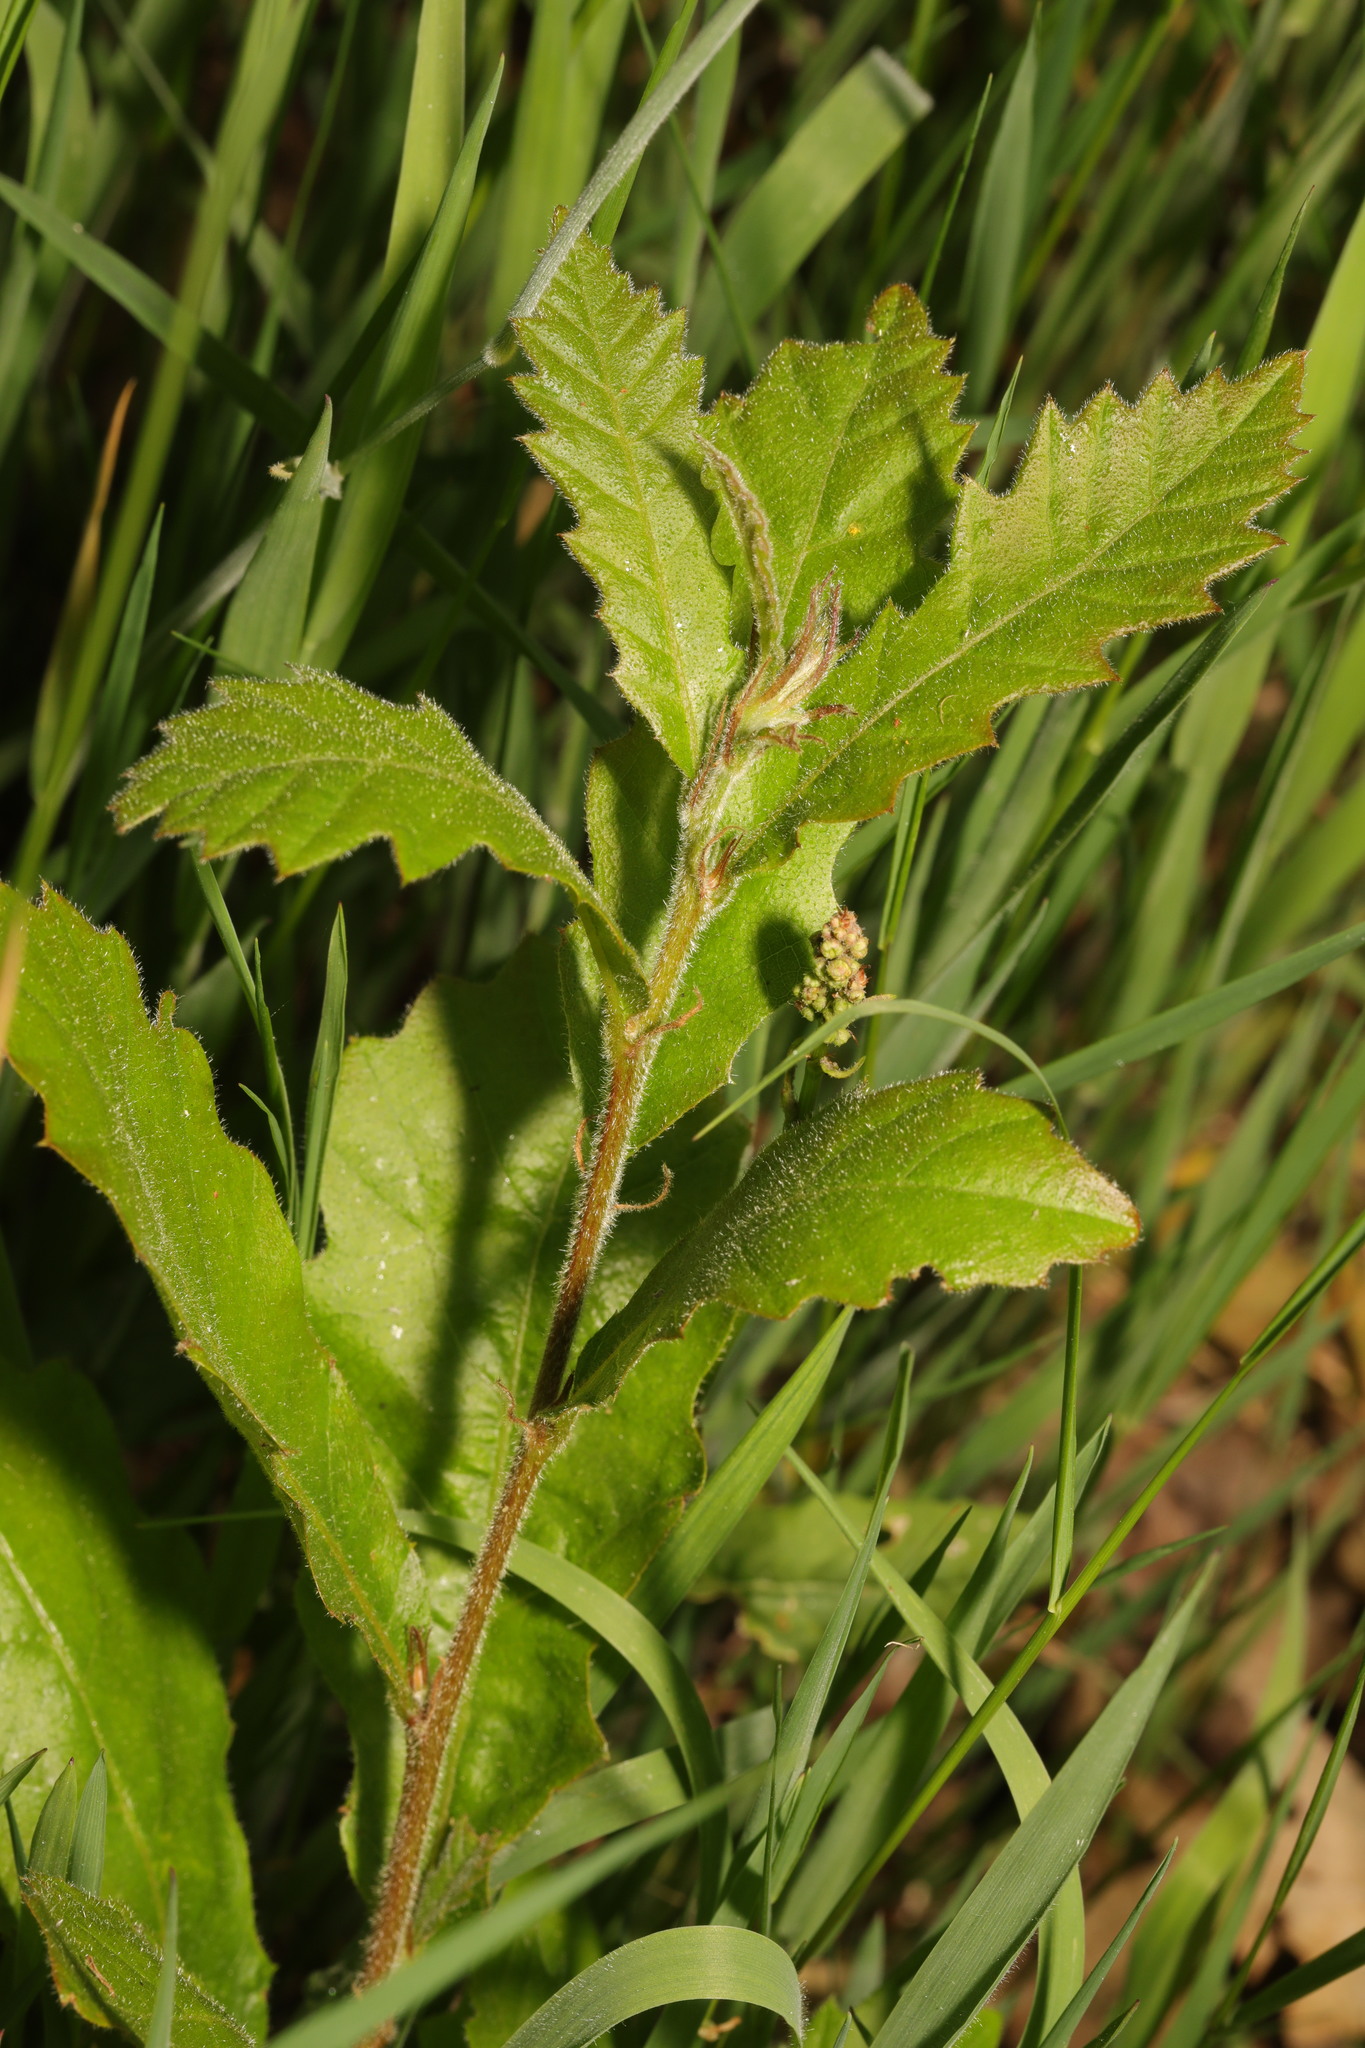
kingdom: Plantae
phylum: Tracheophyta
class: Magnoliopsida
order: Fagales
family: Fagaceae
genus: Quercus
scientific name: Quercus cerris
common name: Turkey oak
